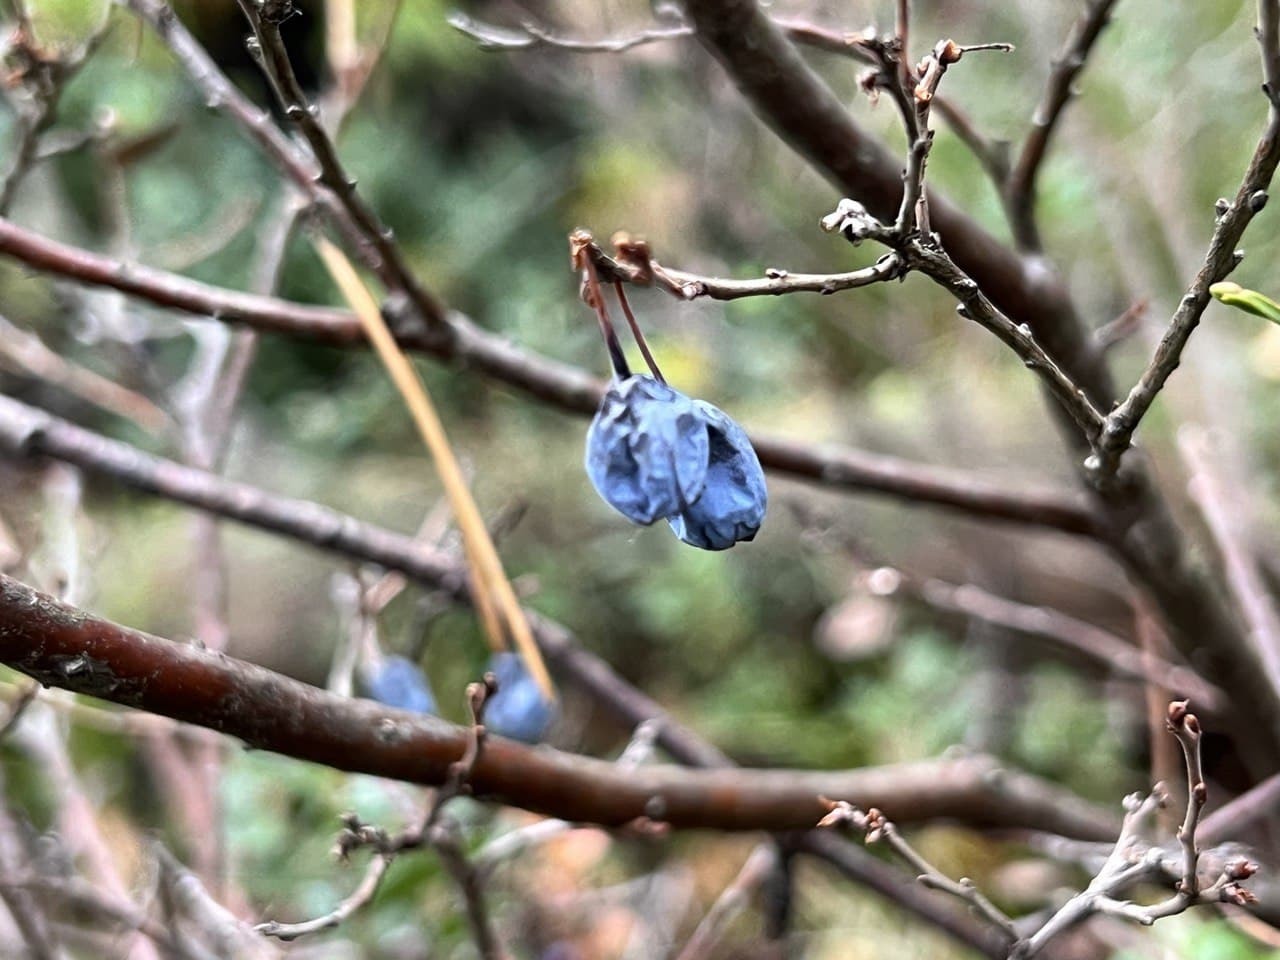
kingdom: Plantae
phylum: Tracheophyta
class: Magnoliopsida
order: Ericales
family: Ericaceae
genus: Vaccinium
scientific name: Vaccinium uliginosum
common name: Bog bilberry
